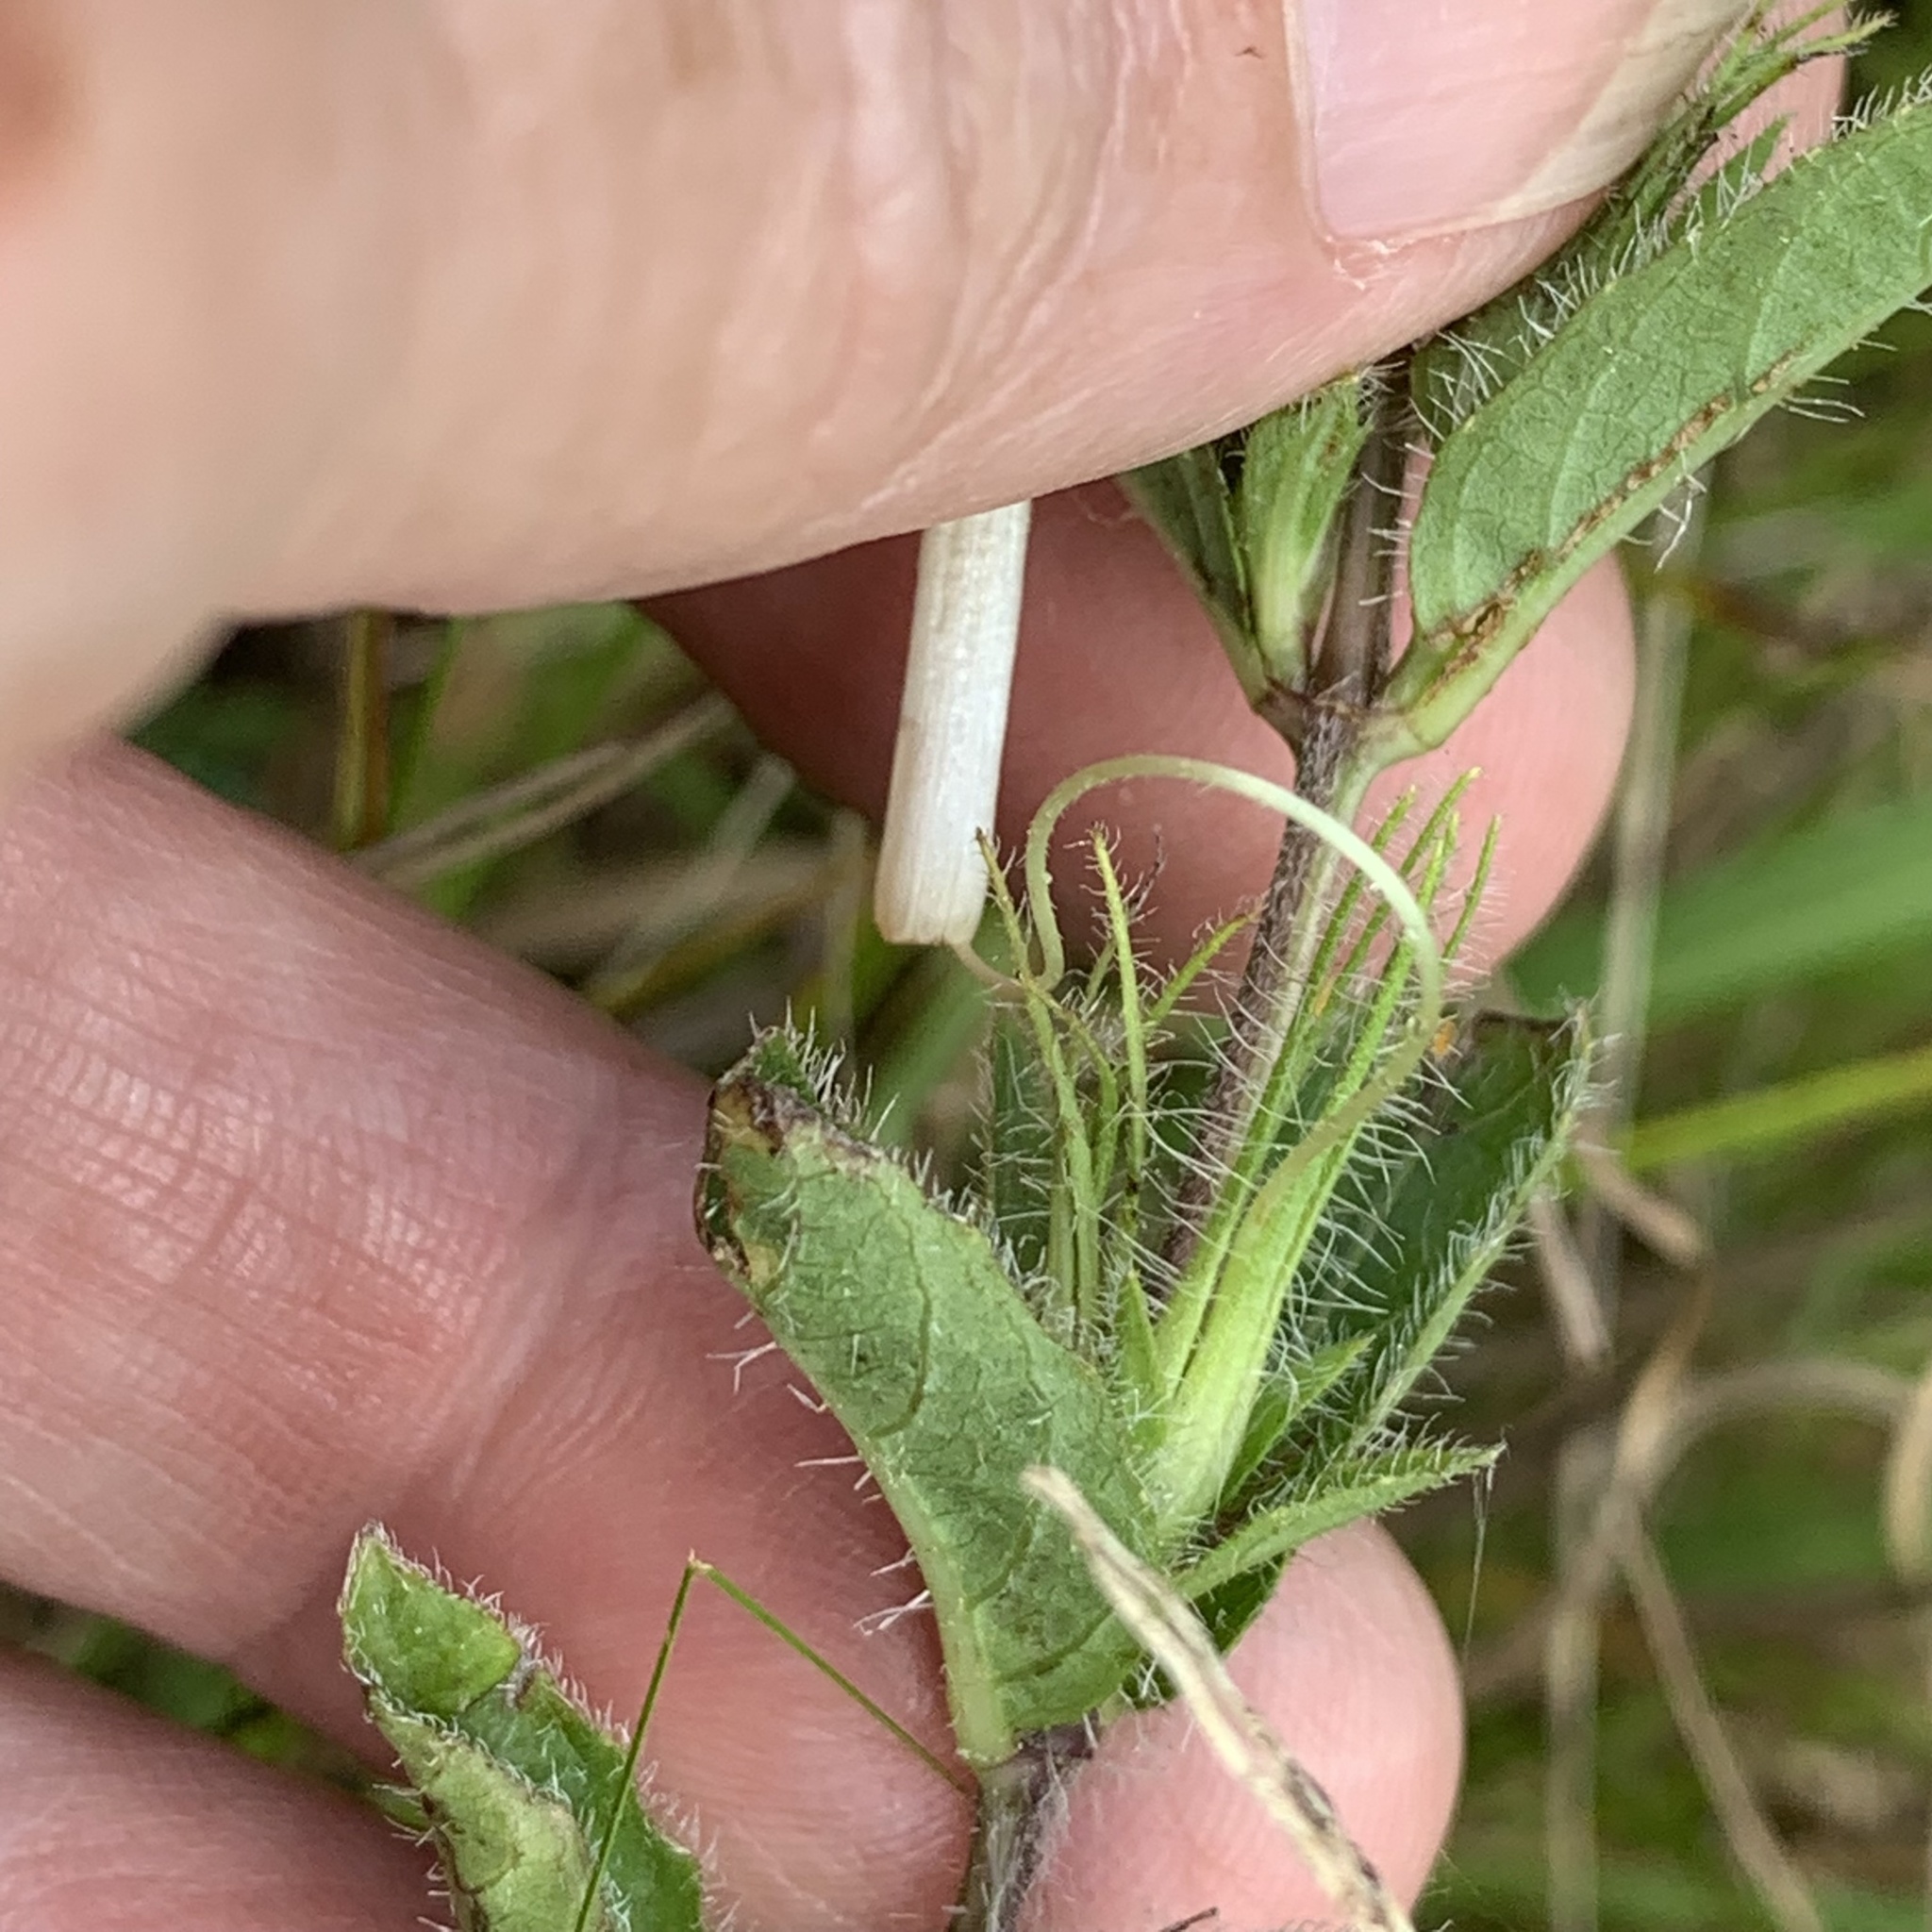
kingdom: Plantae
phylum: Tracheophyta
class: Magnoliopsida
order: Lamiales
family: Acanthaceae
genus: Ruellia
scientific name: Ruellia humilis
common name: Fringe-leaf ruellia
